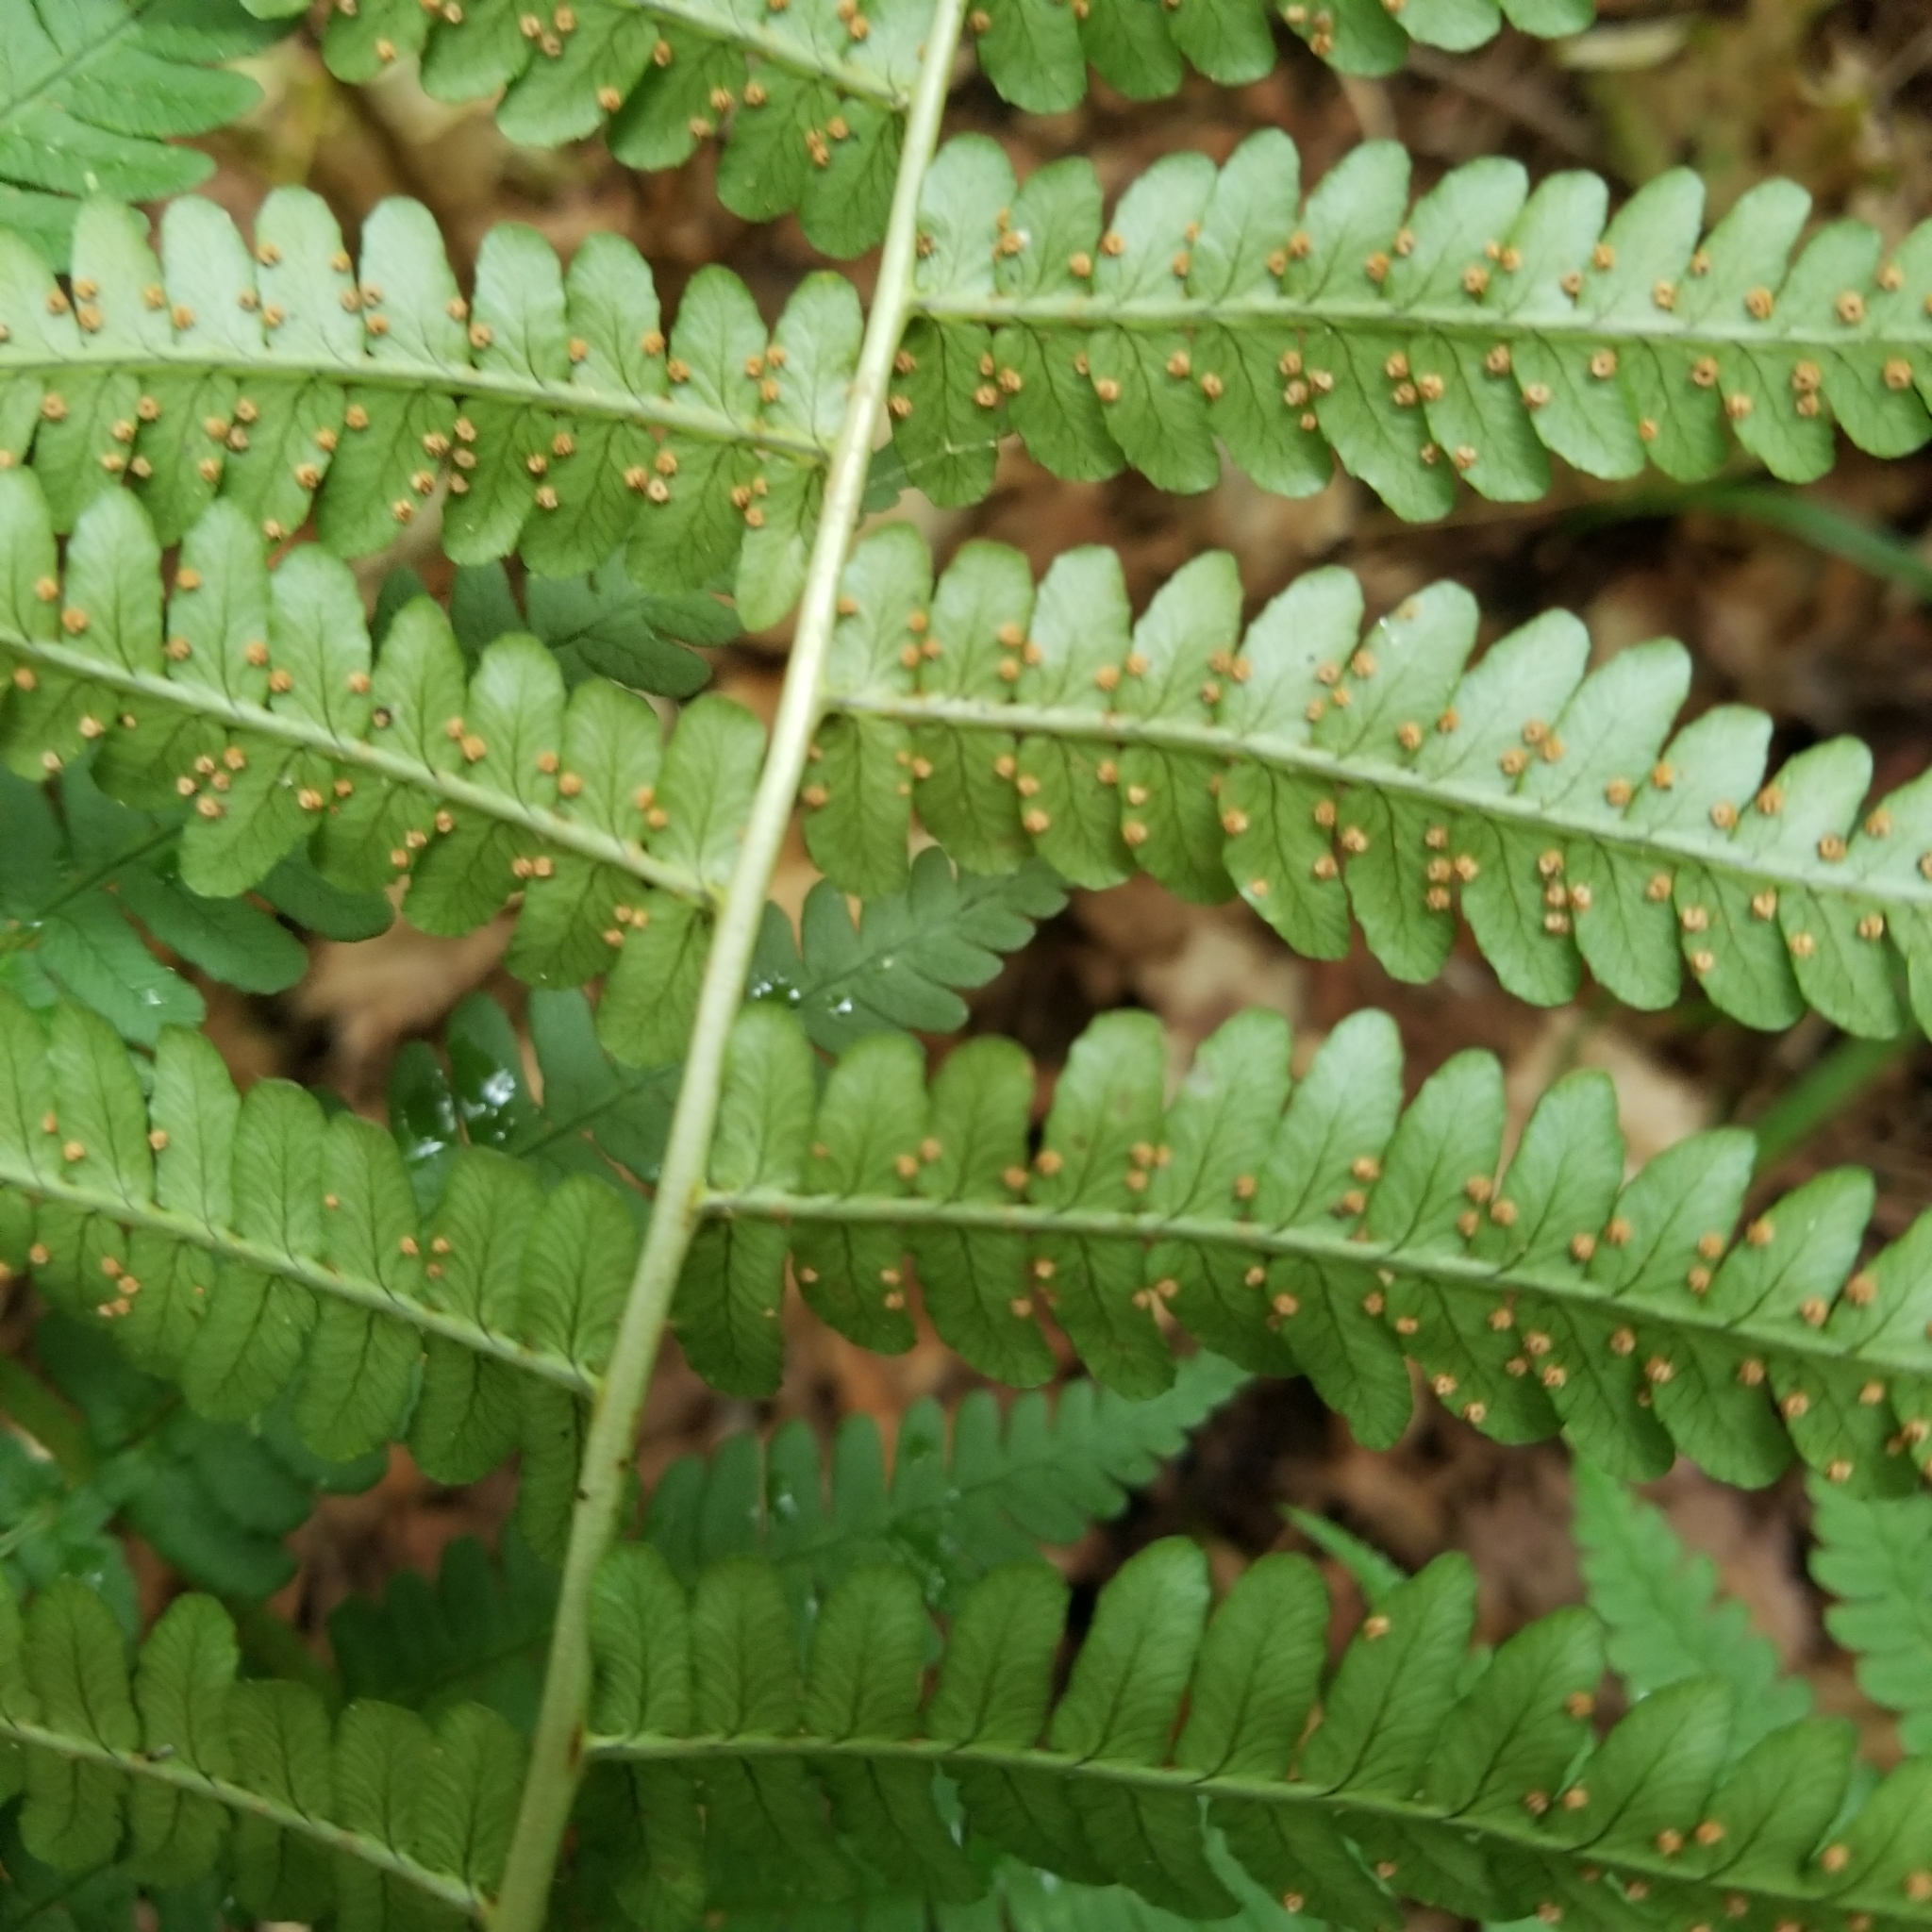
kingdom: Plantae
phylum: Tracheophyta
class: Polypodiopsida
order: Polypodiales
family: Dryopteridaceae
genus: Dryopteris
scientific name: Dryopteris marginalis
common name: Marginal wood fern
